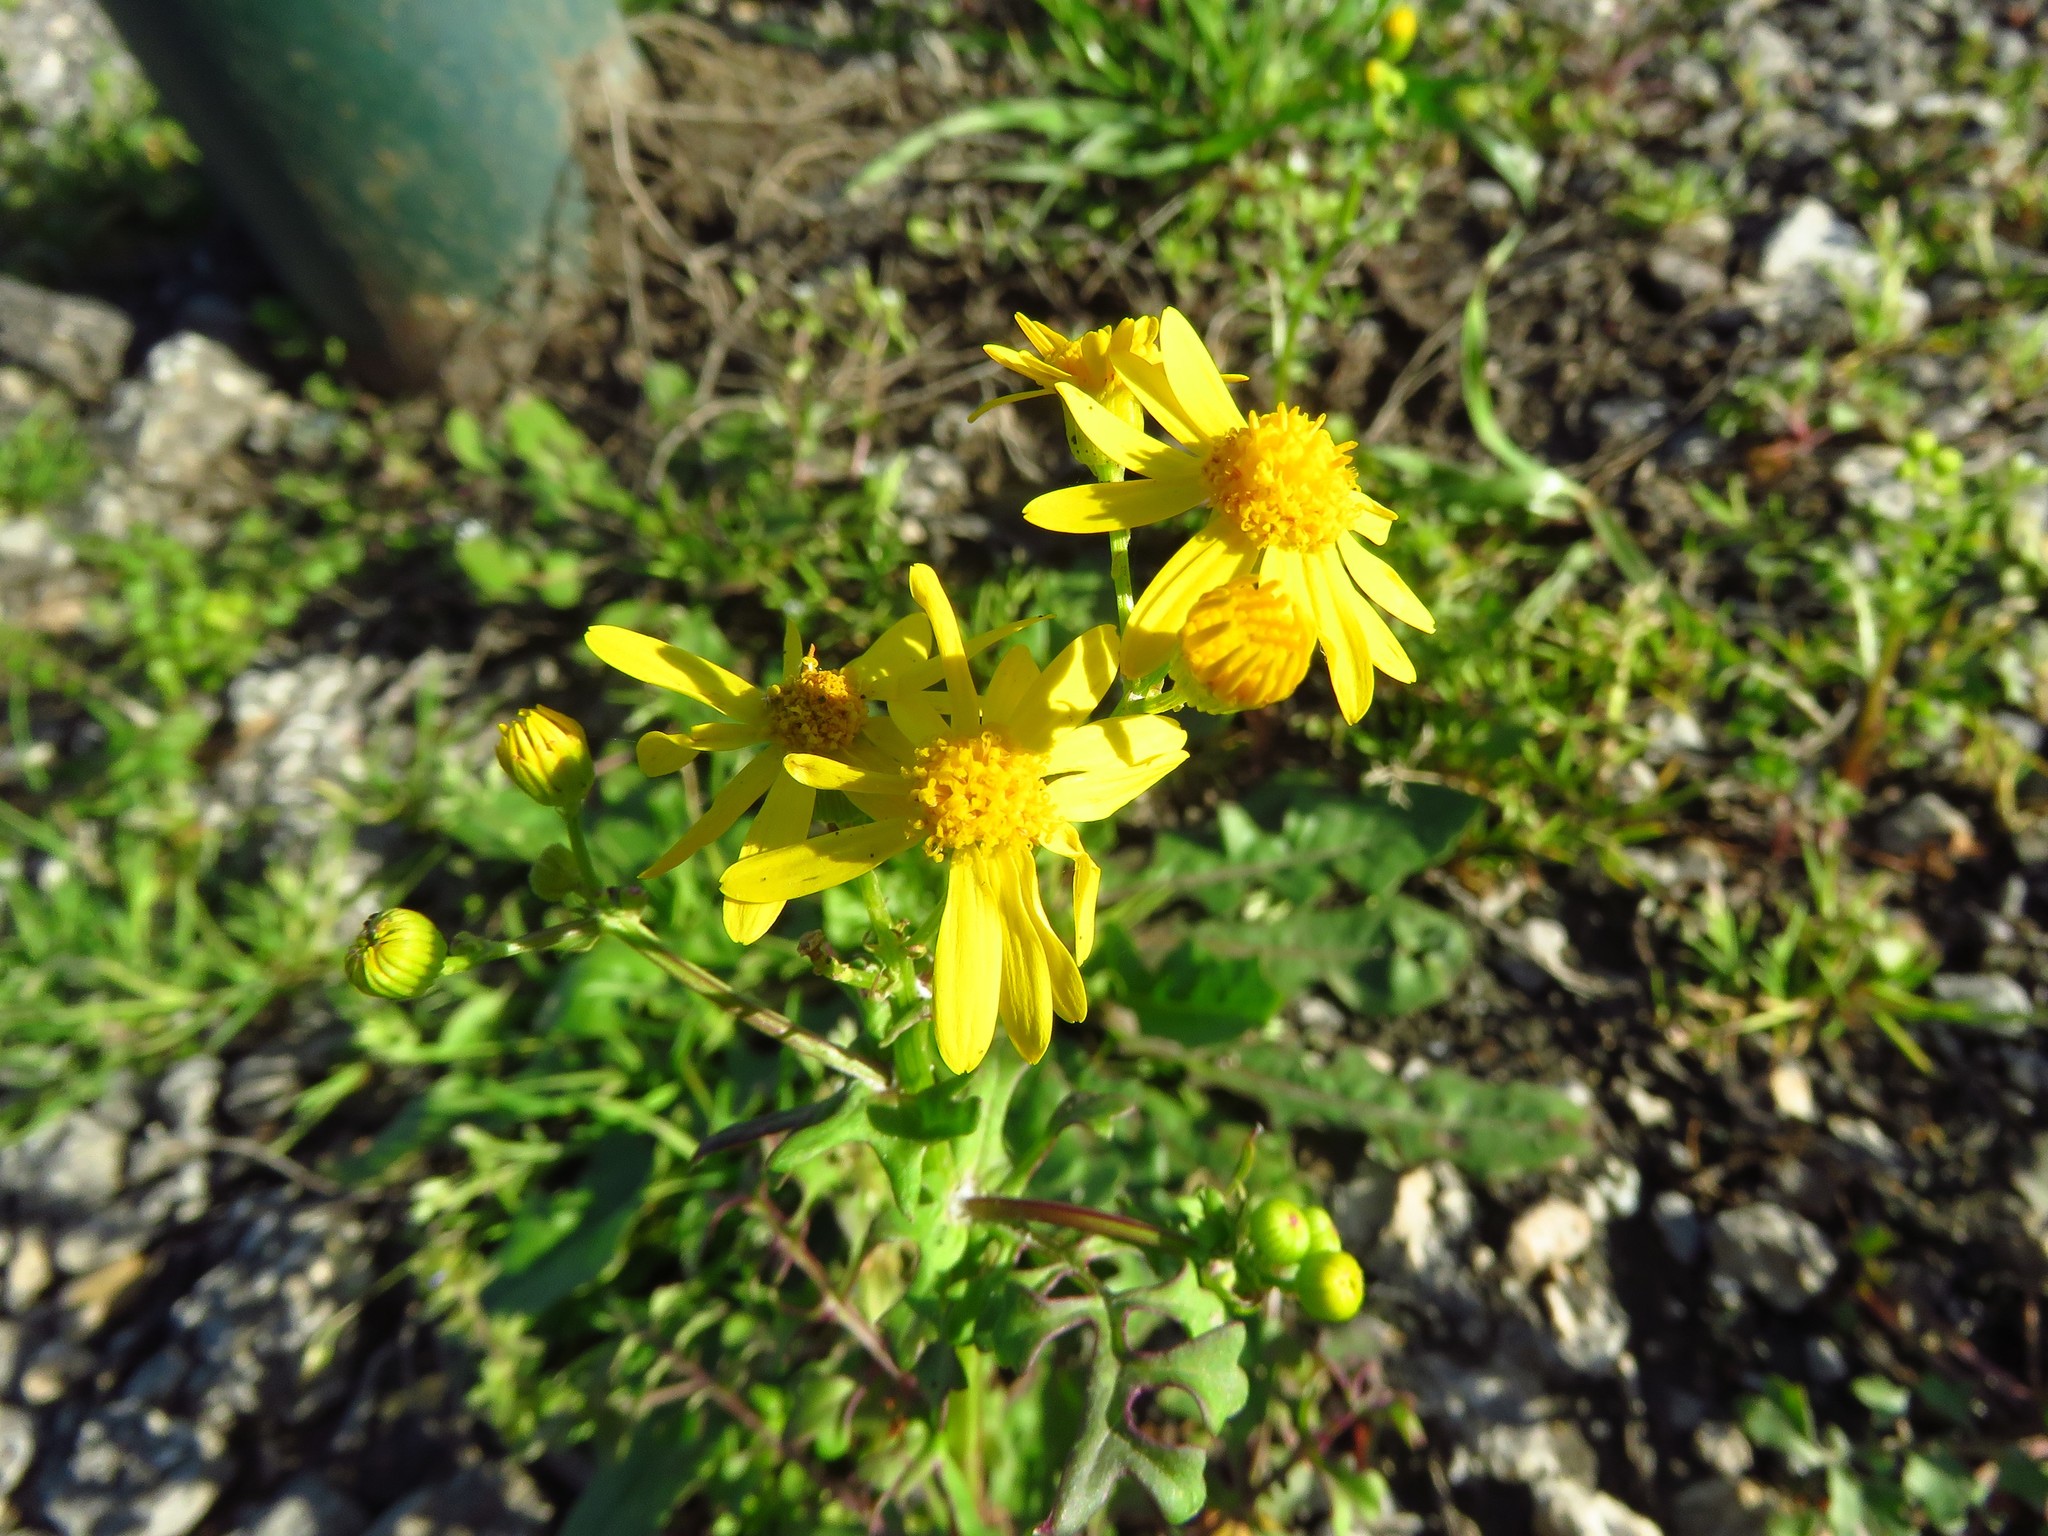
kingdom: Plantae
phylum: Tracheophyta
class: Magnoliopsida
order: Asterales
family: Asteraceae
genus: Packera
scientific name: Packera tampicana
